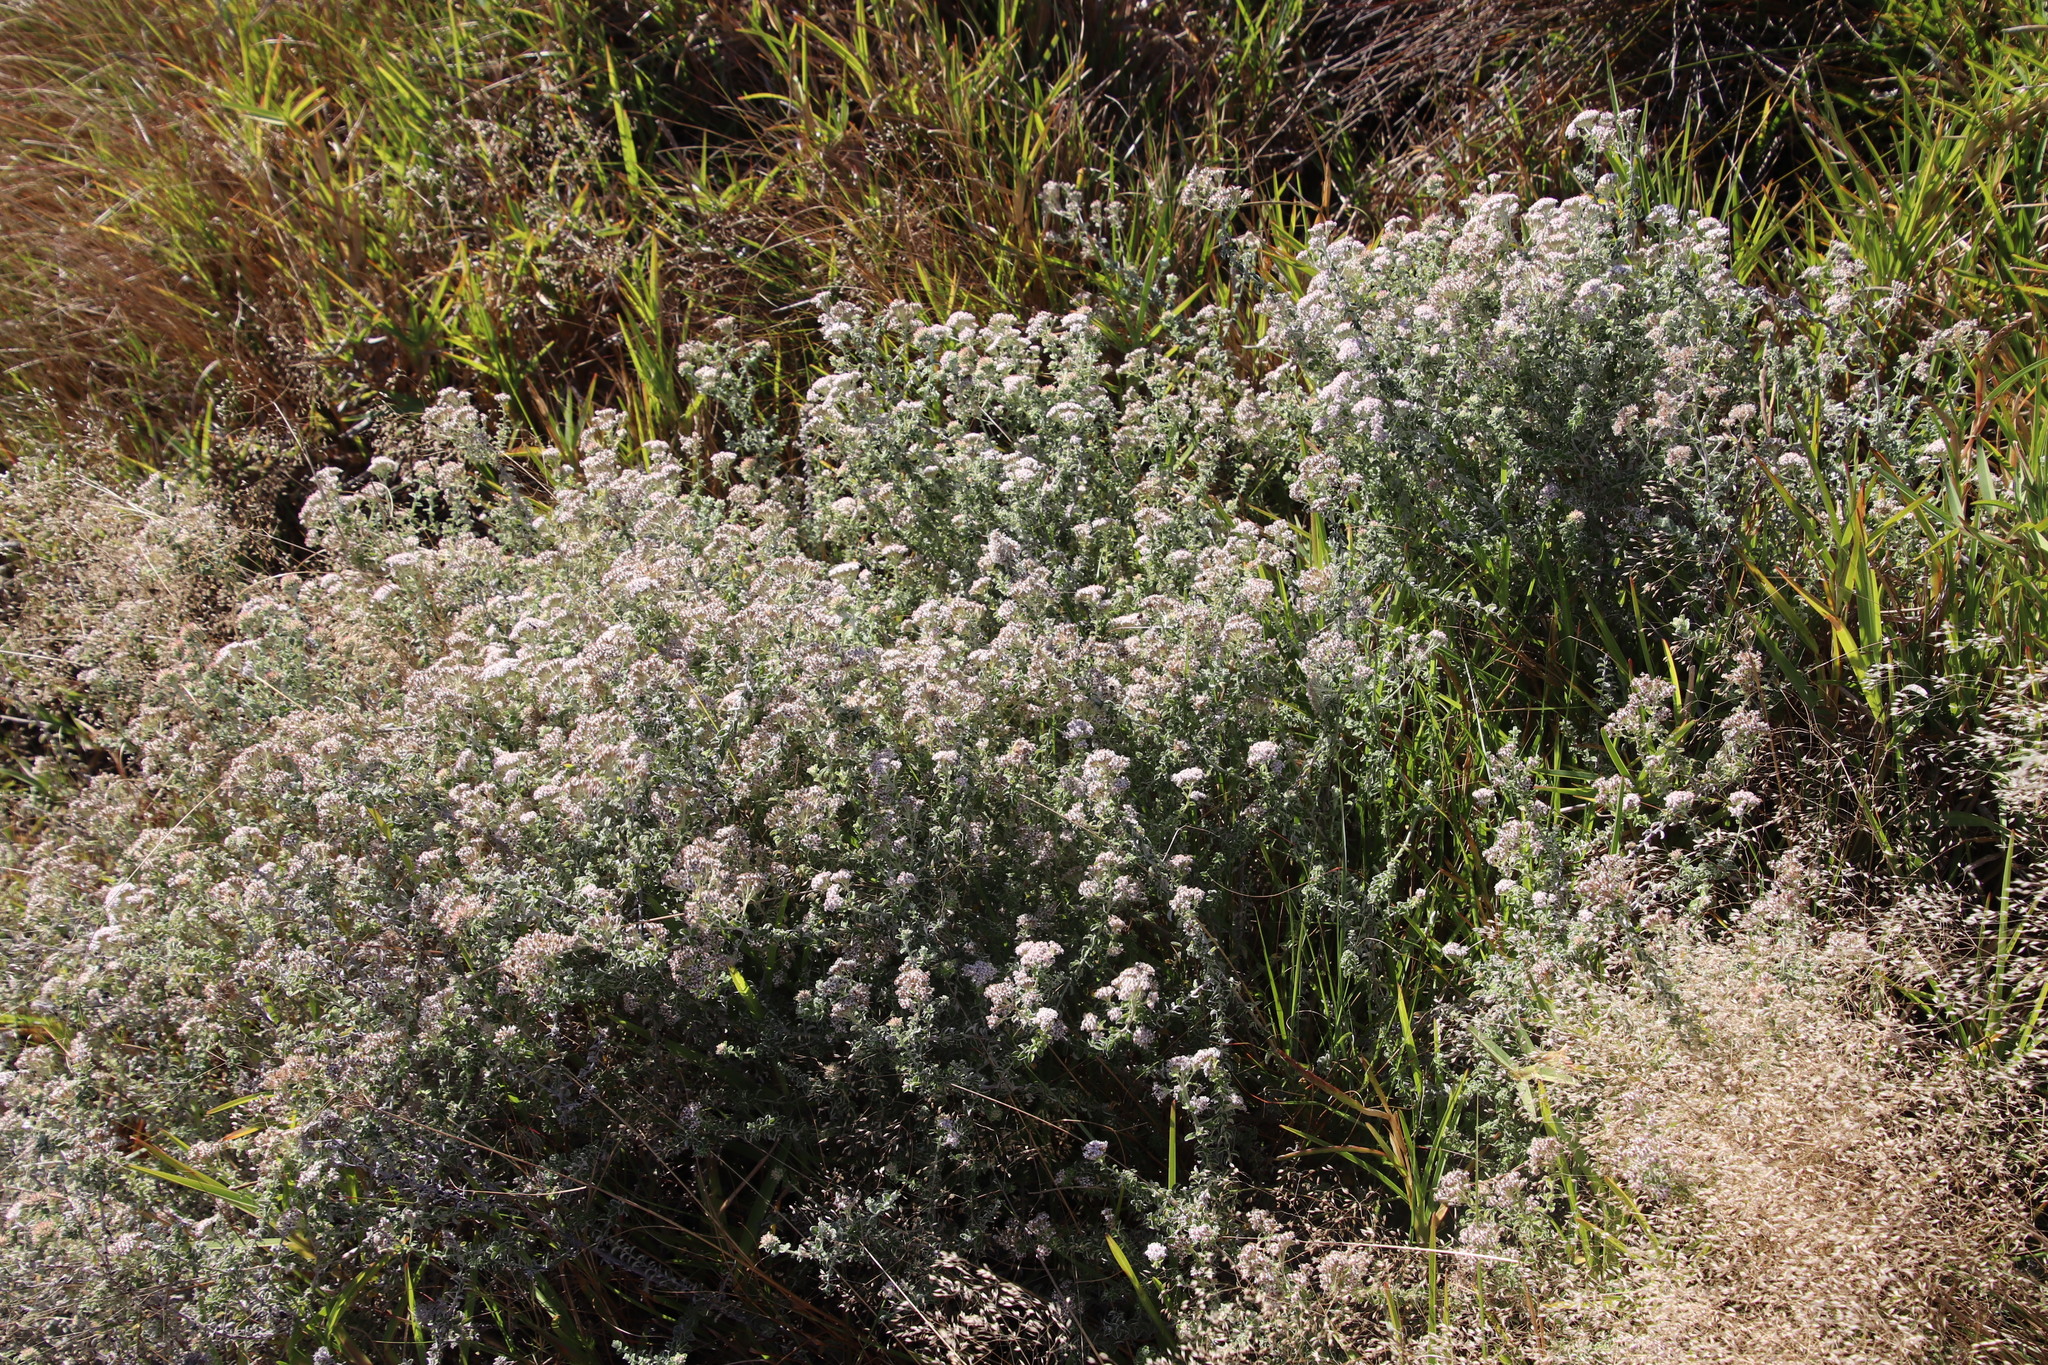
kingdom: Plantae
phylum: Tracheophyta
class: Magnoliopsida
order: Asterales
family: Asteraceae
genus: Plecostachys
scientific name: Plecostachys serpyllifolia
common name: Petite licorice
